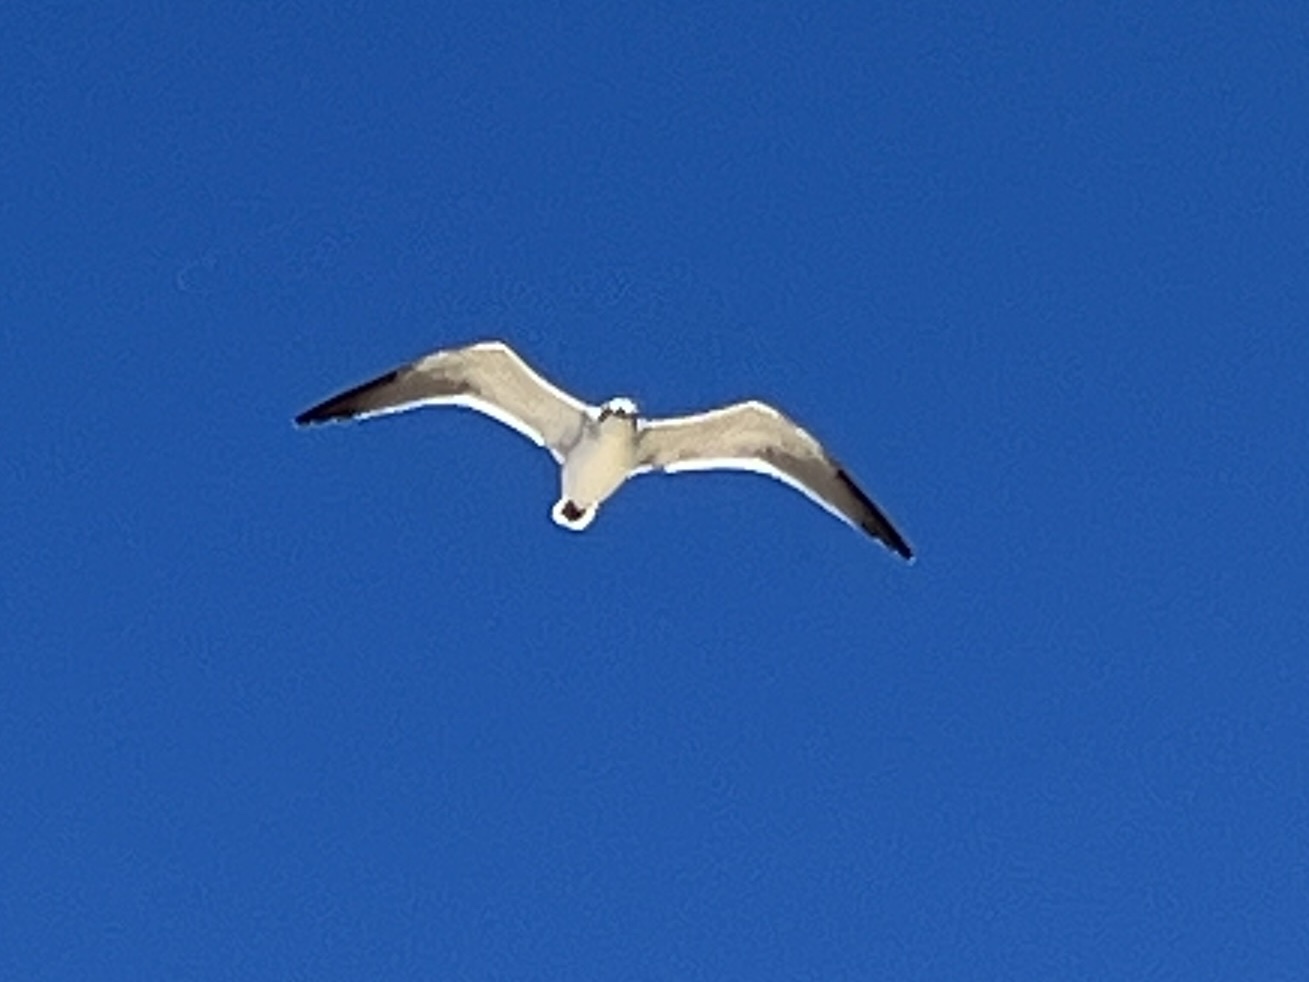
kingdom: Animalia
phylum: Chordata
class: Aves
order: Charadriiformes
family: Laridae
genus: Leucophaeus
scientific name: Leucophaeus atricilla
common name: Laughing gull
